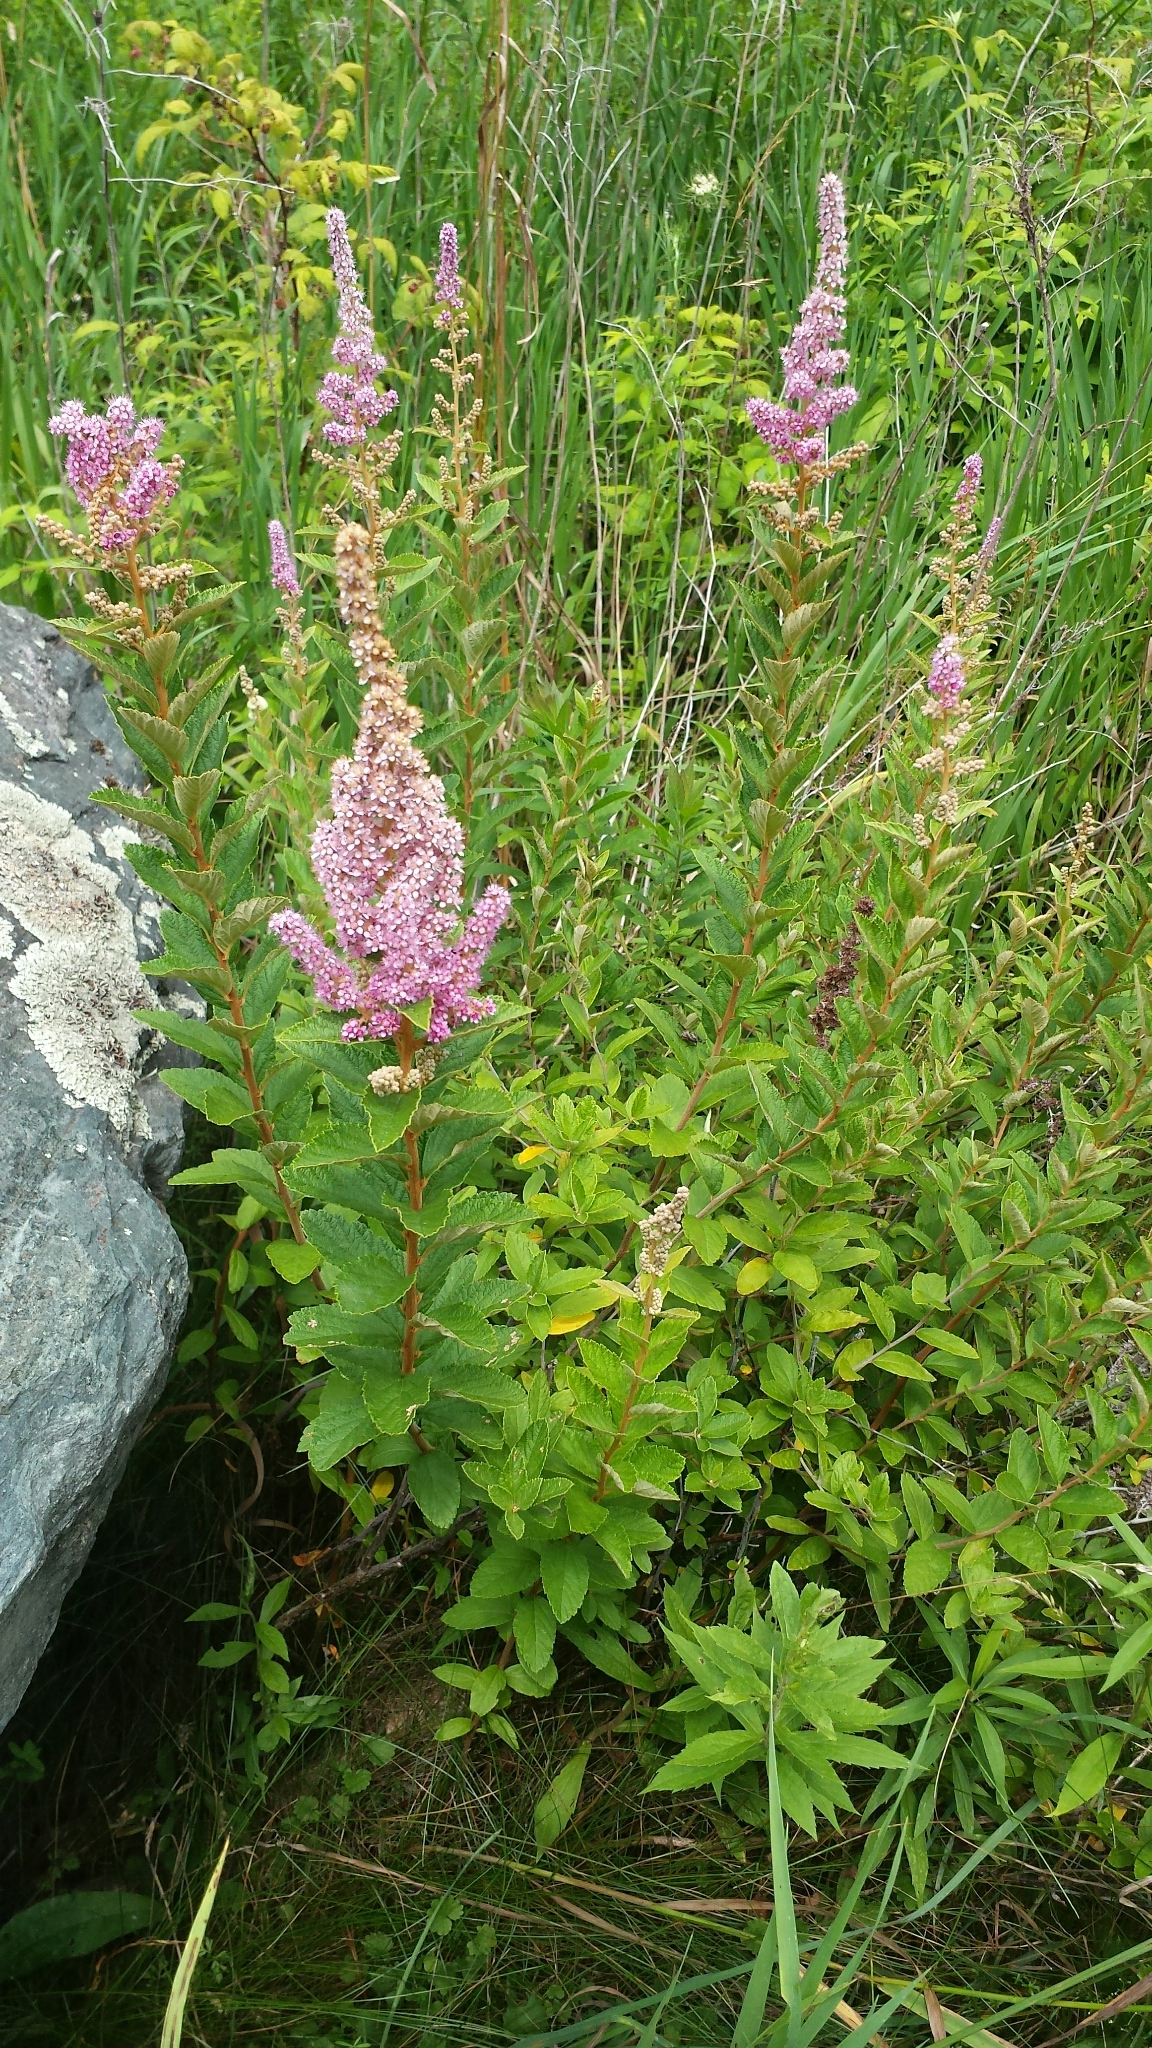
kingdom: Plantae
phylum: Tracheophyta
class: Magnoliopsida
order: Rosales
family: Rosaceae
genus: Spiraea
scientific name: Spiraea tomentosa
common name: Hardhack
